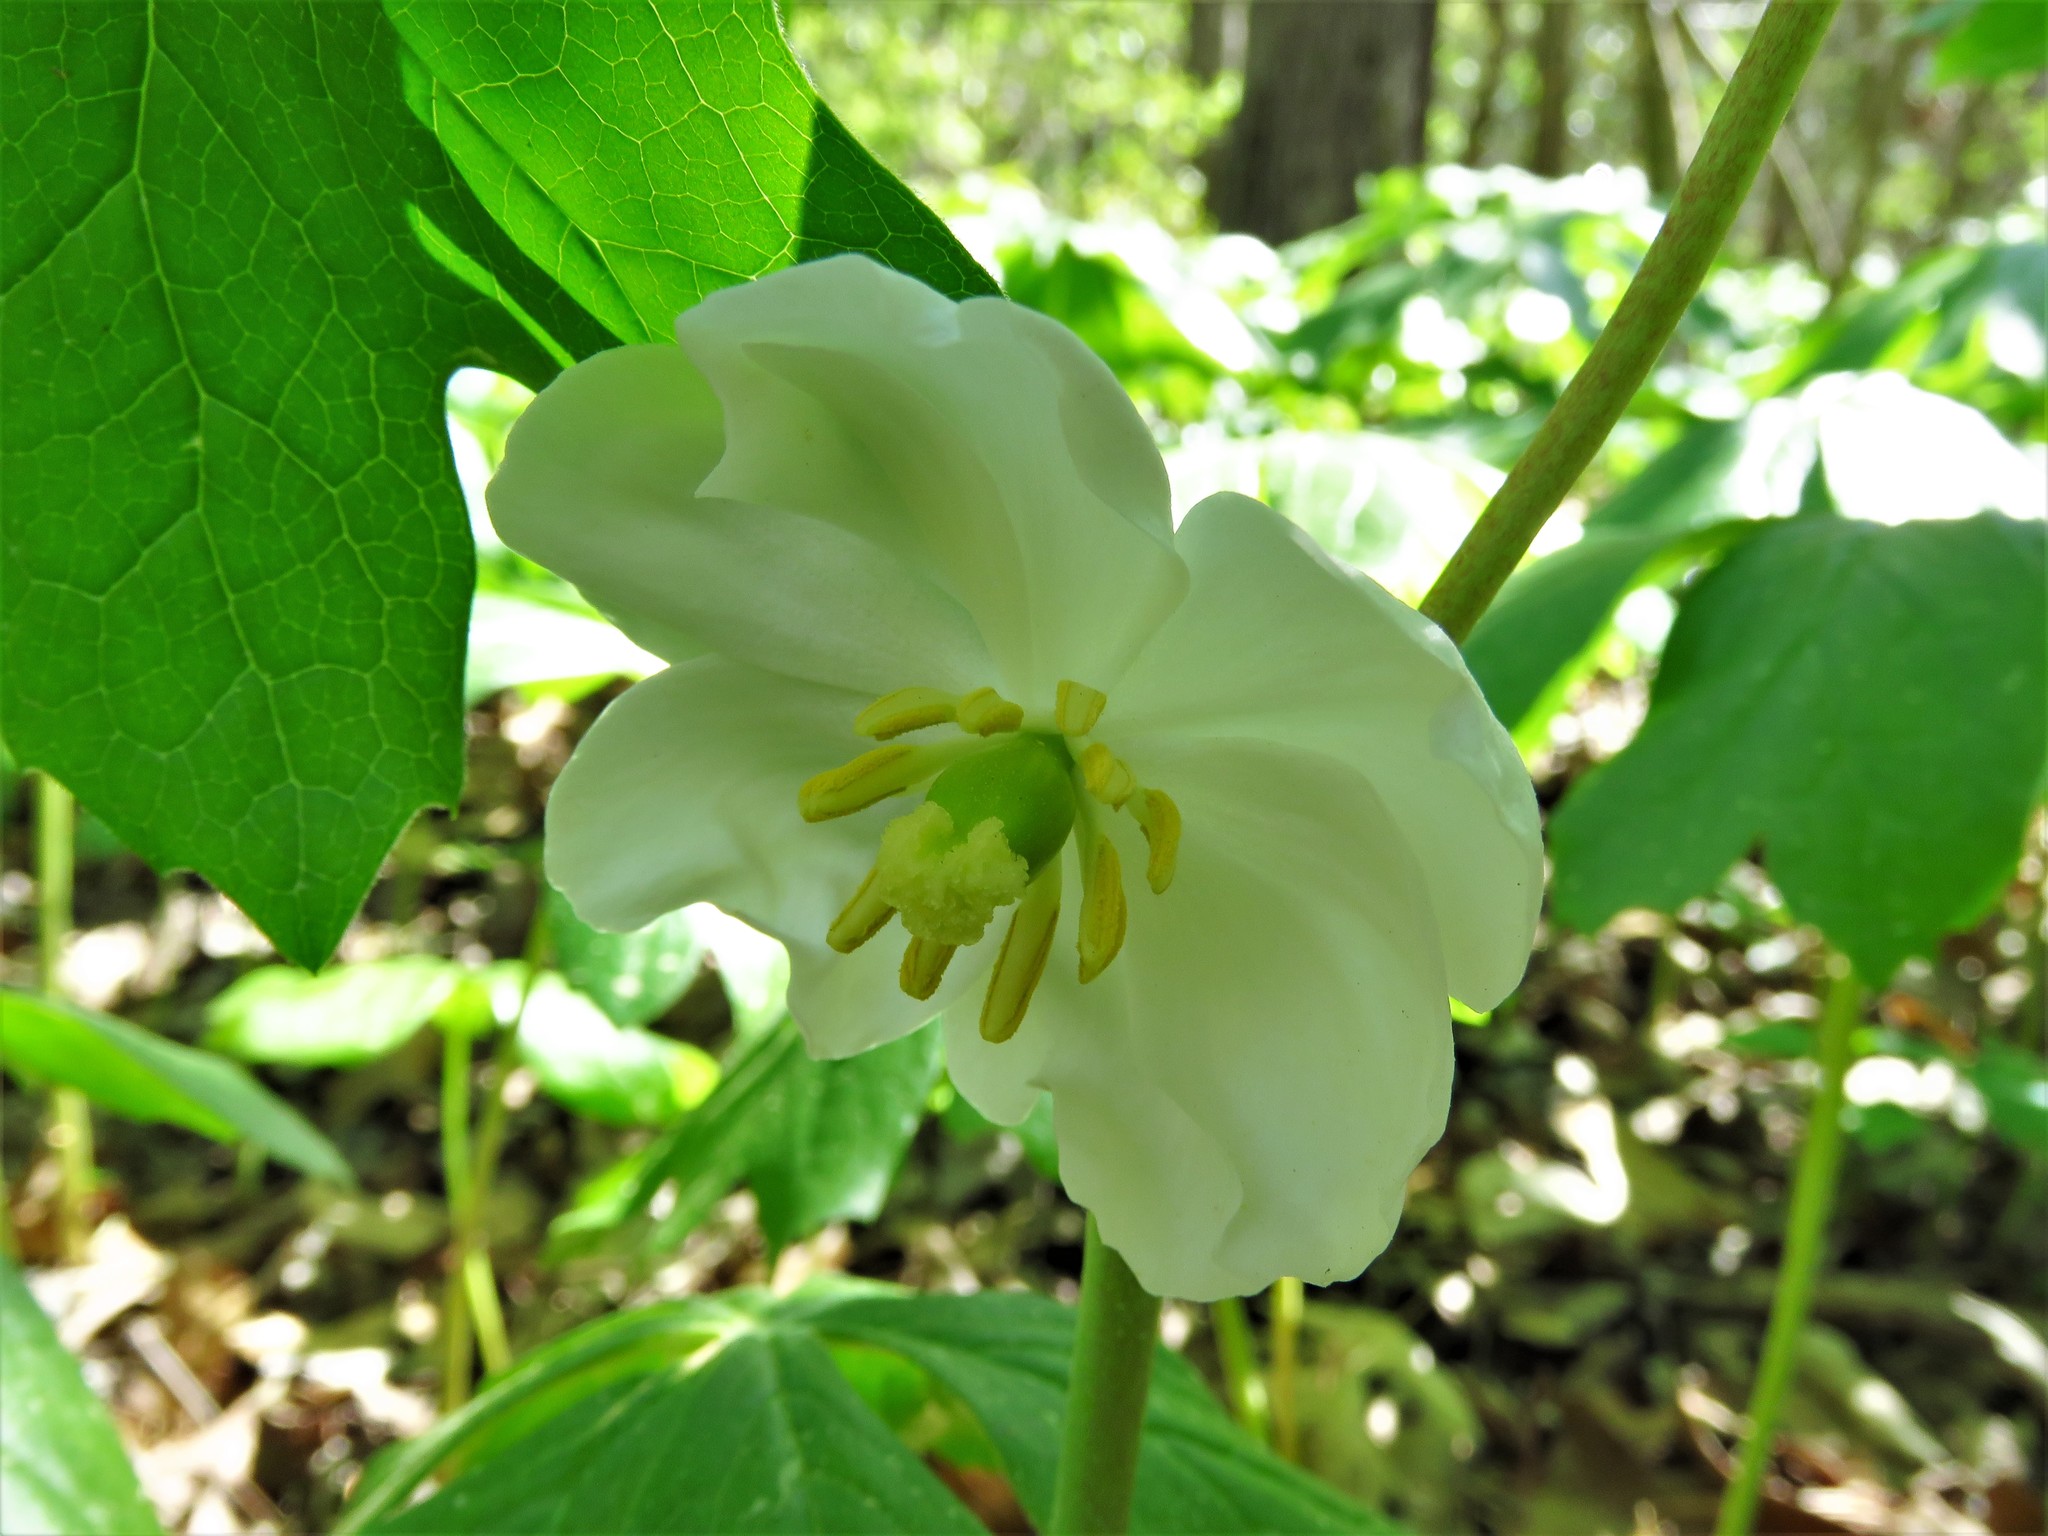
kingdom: Plantae
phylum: Tracheophyta
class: Magnoliopsida
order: Ranunculales
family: Berberidaceae
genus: Podophyllum
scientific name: Podophyllum peltatum
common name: Wild mandrake
